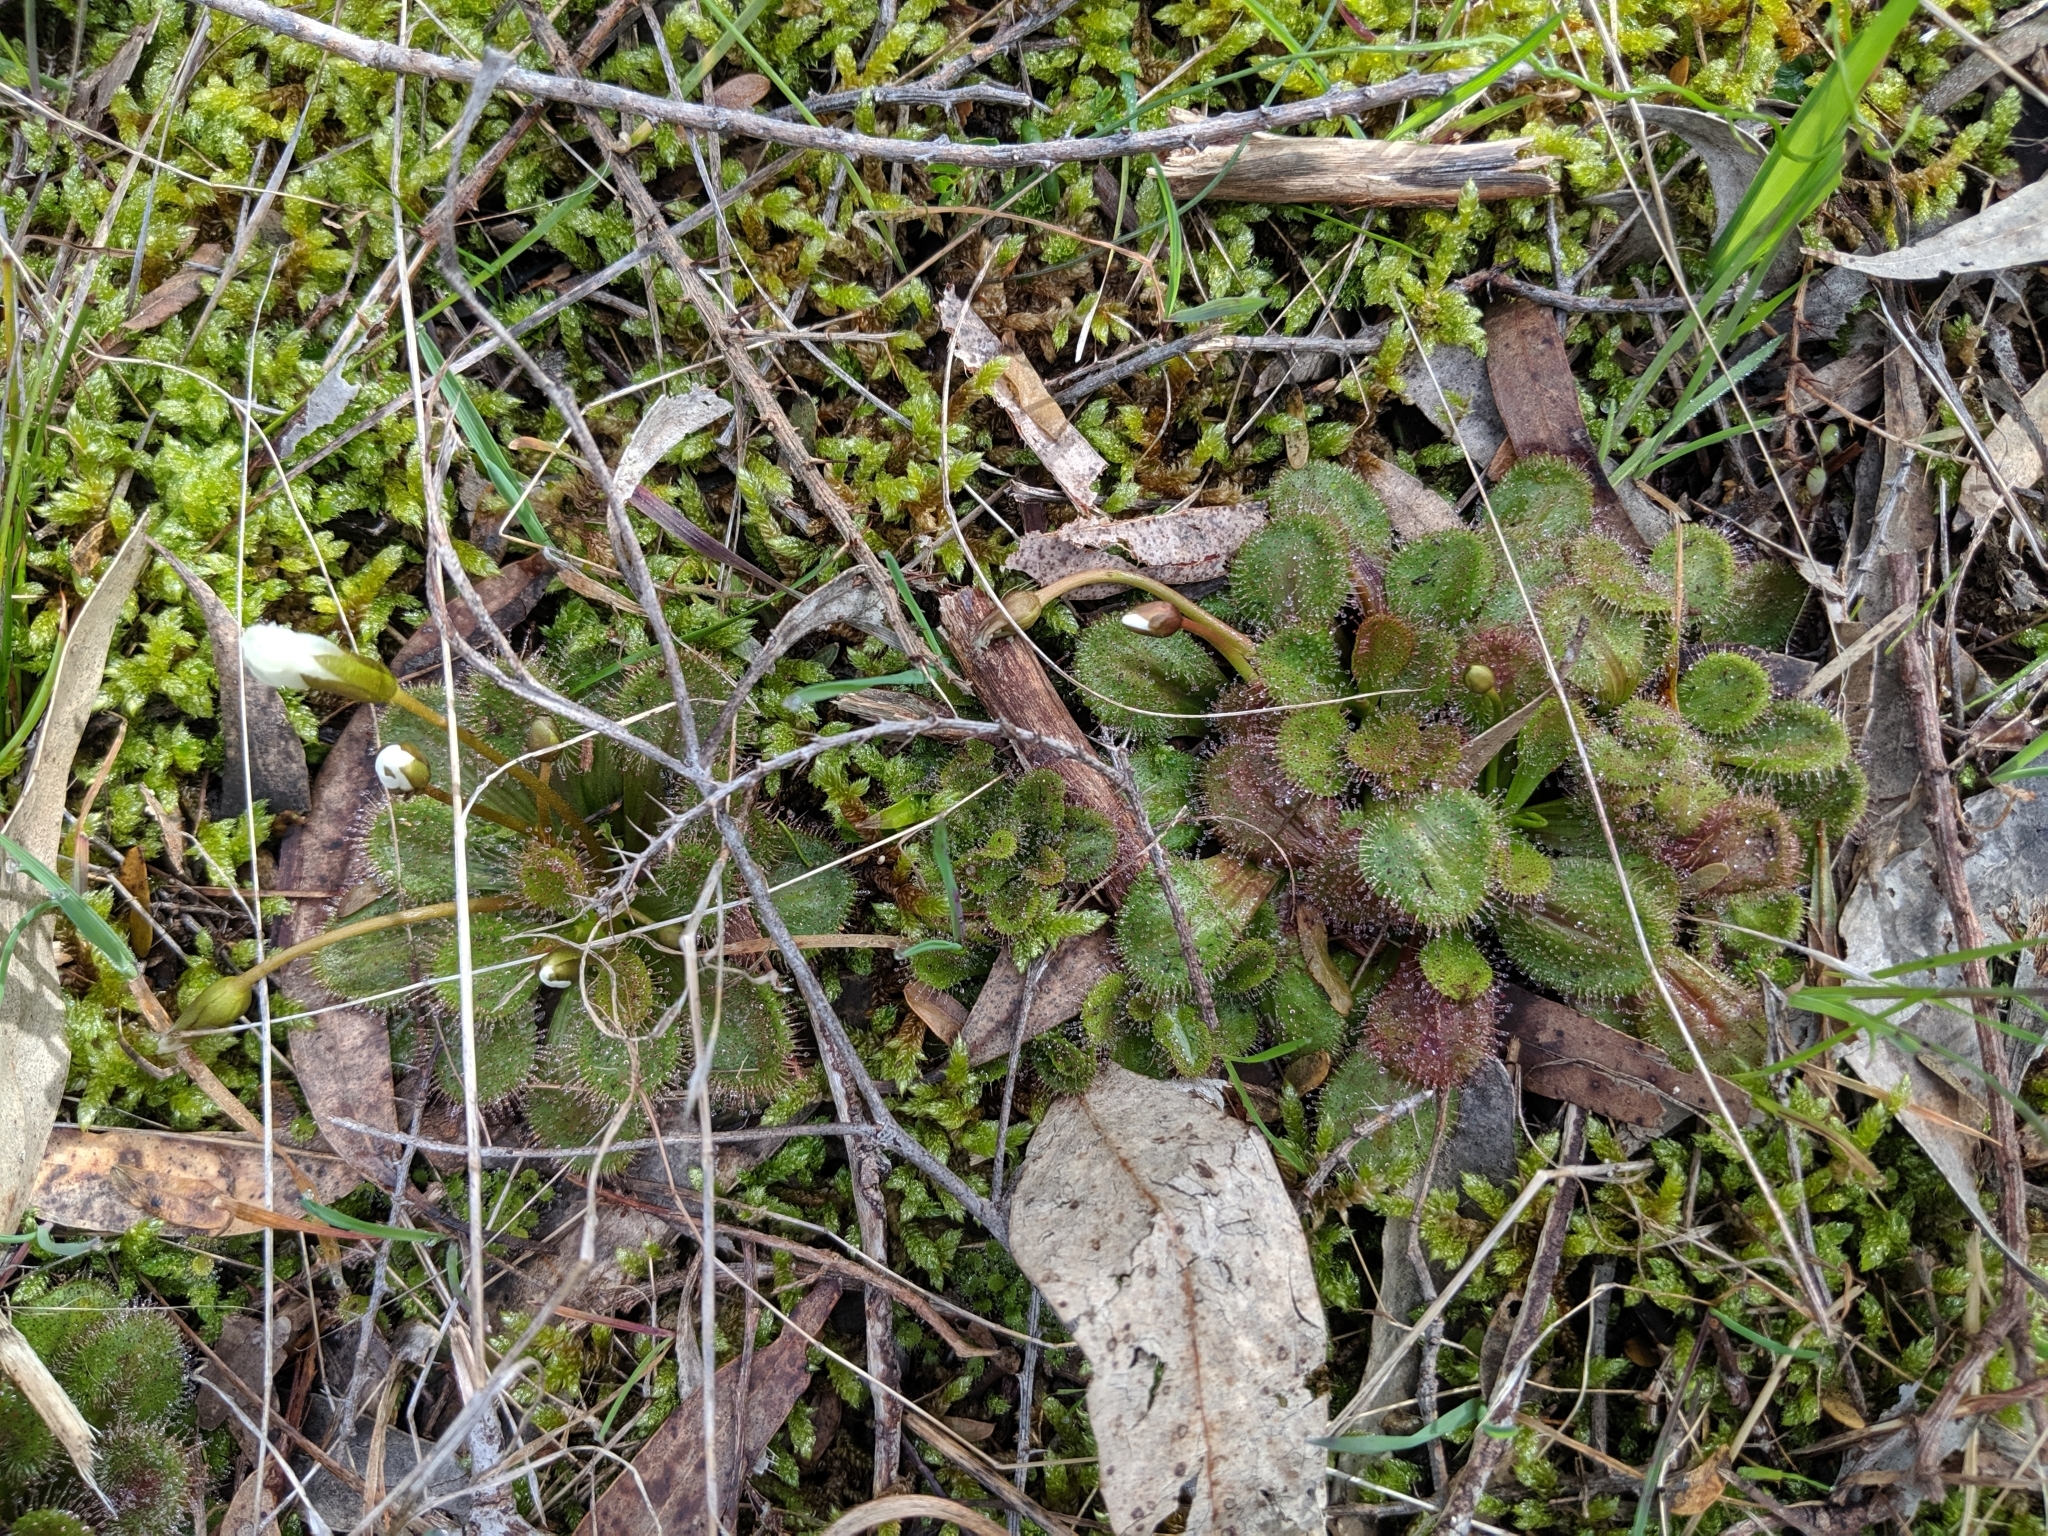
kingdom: Plantae
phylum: Tracheophyta
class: Magnoliopsida
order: Caryophyllales
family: Droseraceae
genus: Drosera
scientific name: Drosera whittakeri
